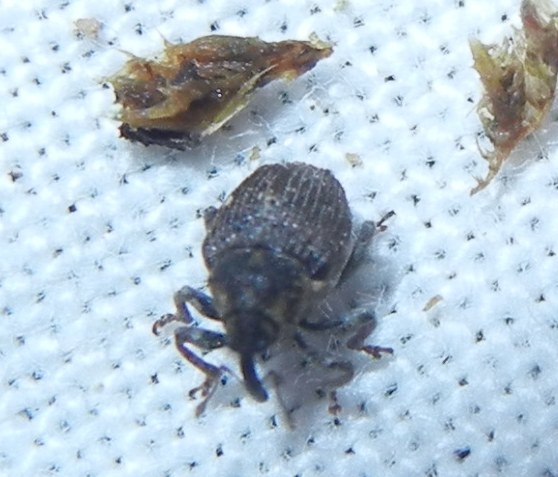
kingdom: Animalia
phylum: Arthropoda
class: Insecta
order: Coleoptera
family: Curculionidae
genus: Nedyus
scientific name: Nedyus quadrimaculatus
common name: Small nettle weevil
